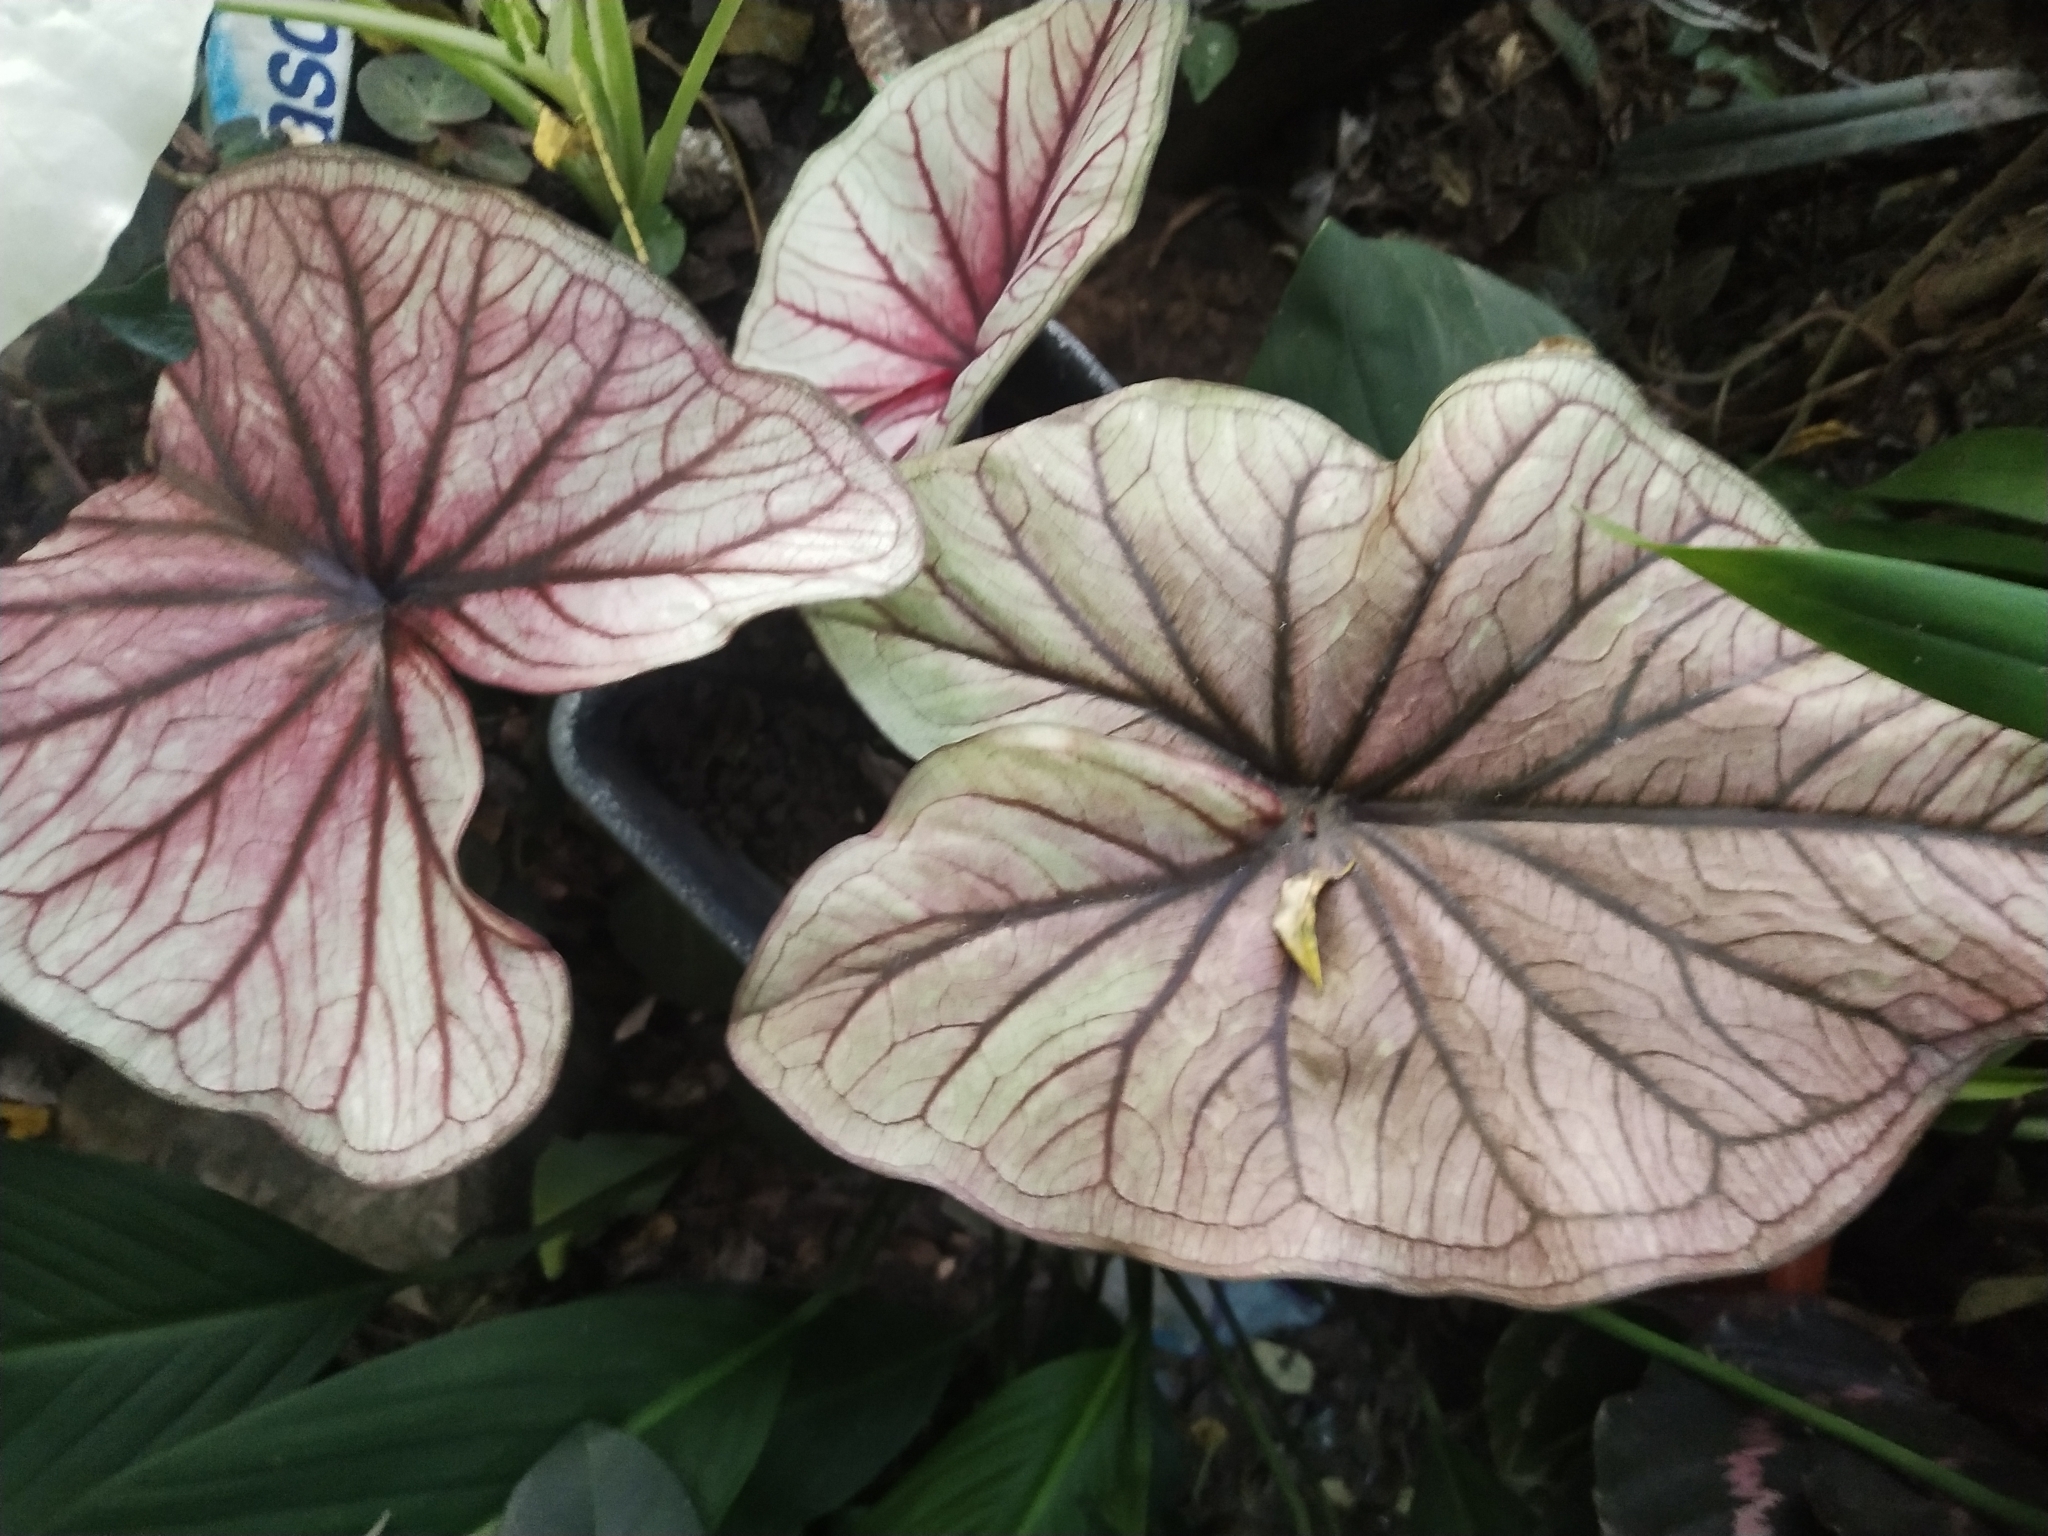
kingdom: Plantae
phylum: Tracheophyta
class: Liliopsida
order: Alismatales
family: Araceae
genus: Caladium
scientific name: Caladium bicolor
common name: Artist's pallet
